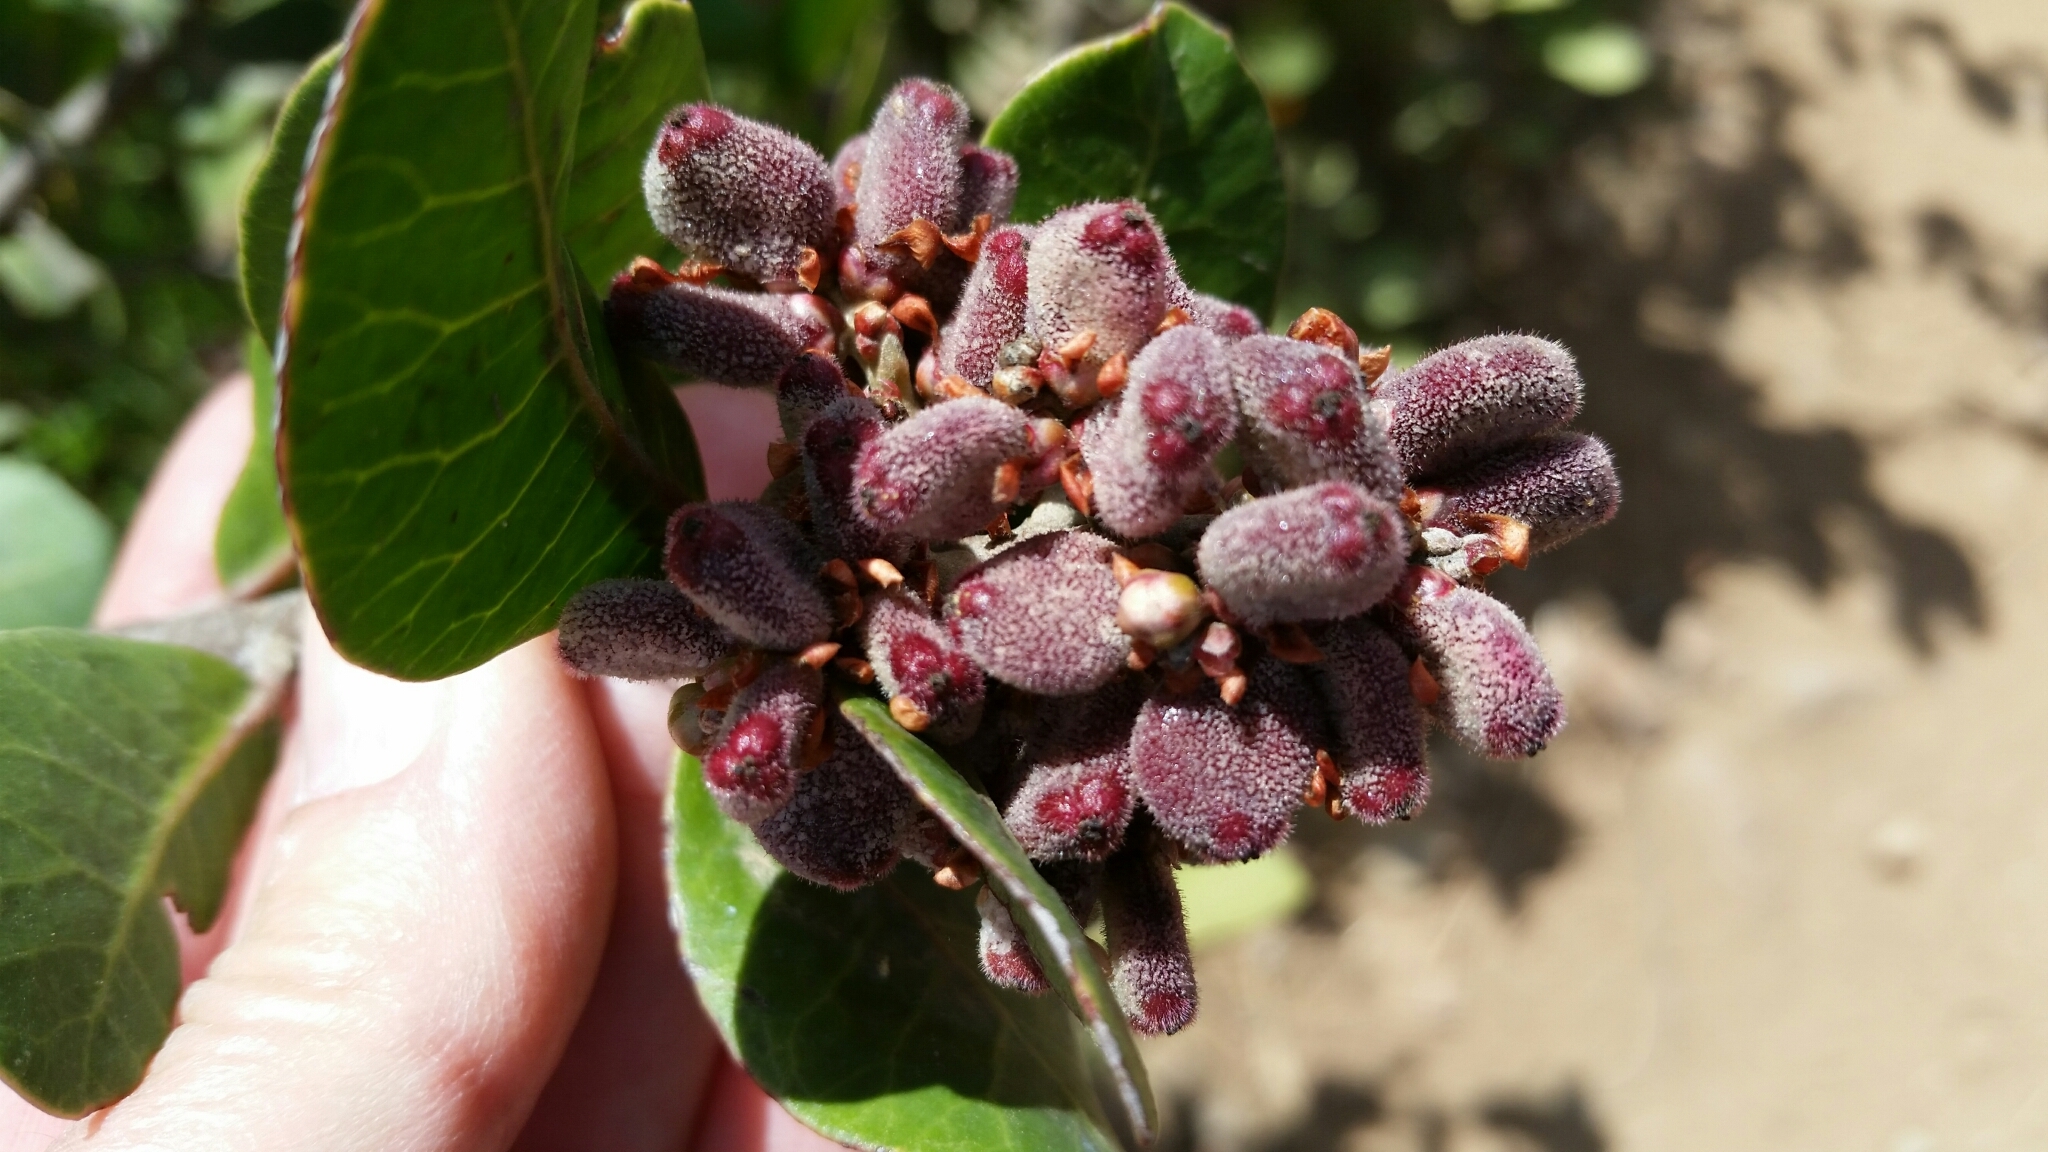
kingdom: Plantae
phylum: Tracheophyta
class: Magnoliopsida
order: Sapindales
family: Anacardiaceae
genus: Rhus
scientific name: Rhus integrifolia
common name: Lemonade sumac
